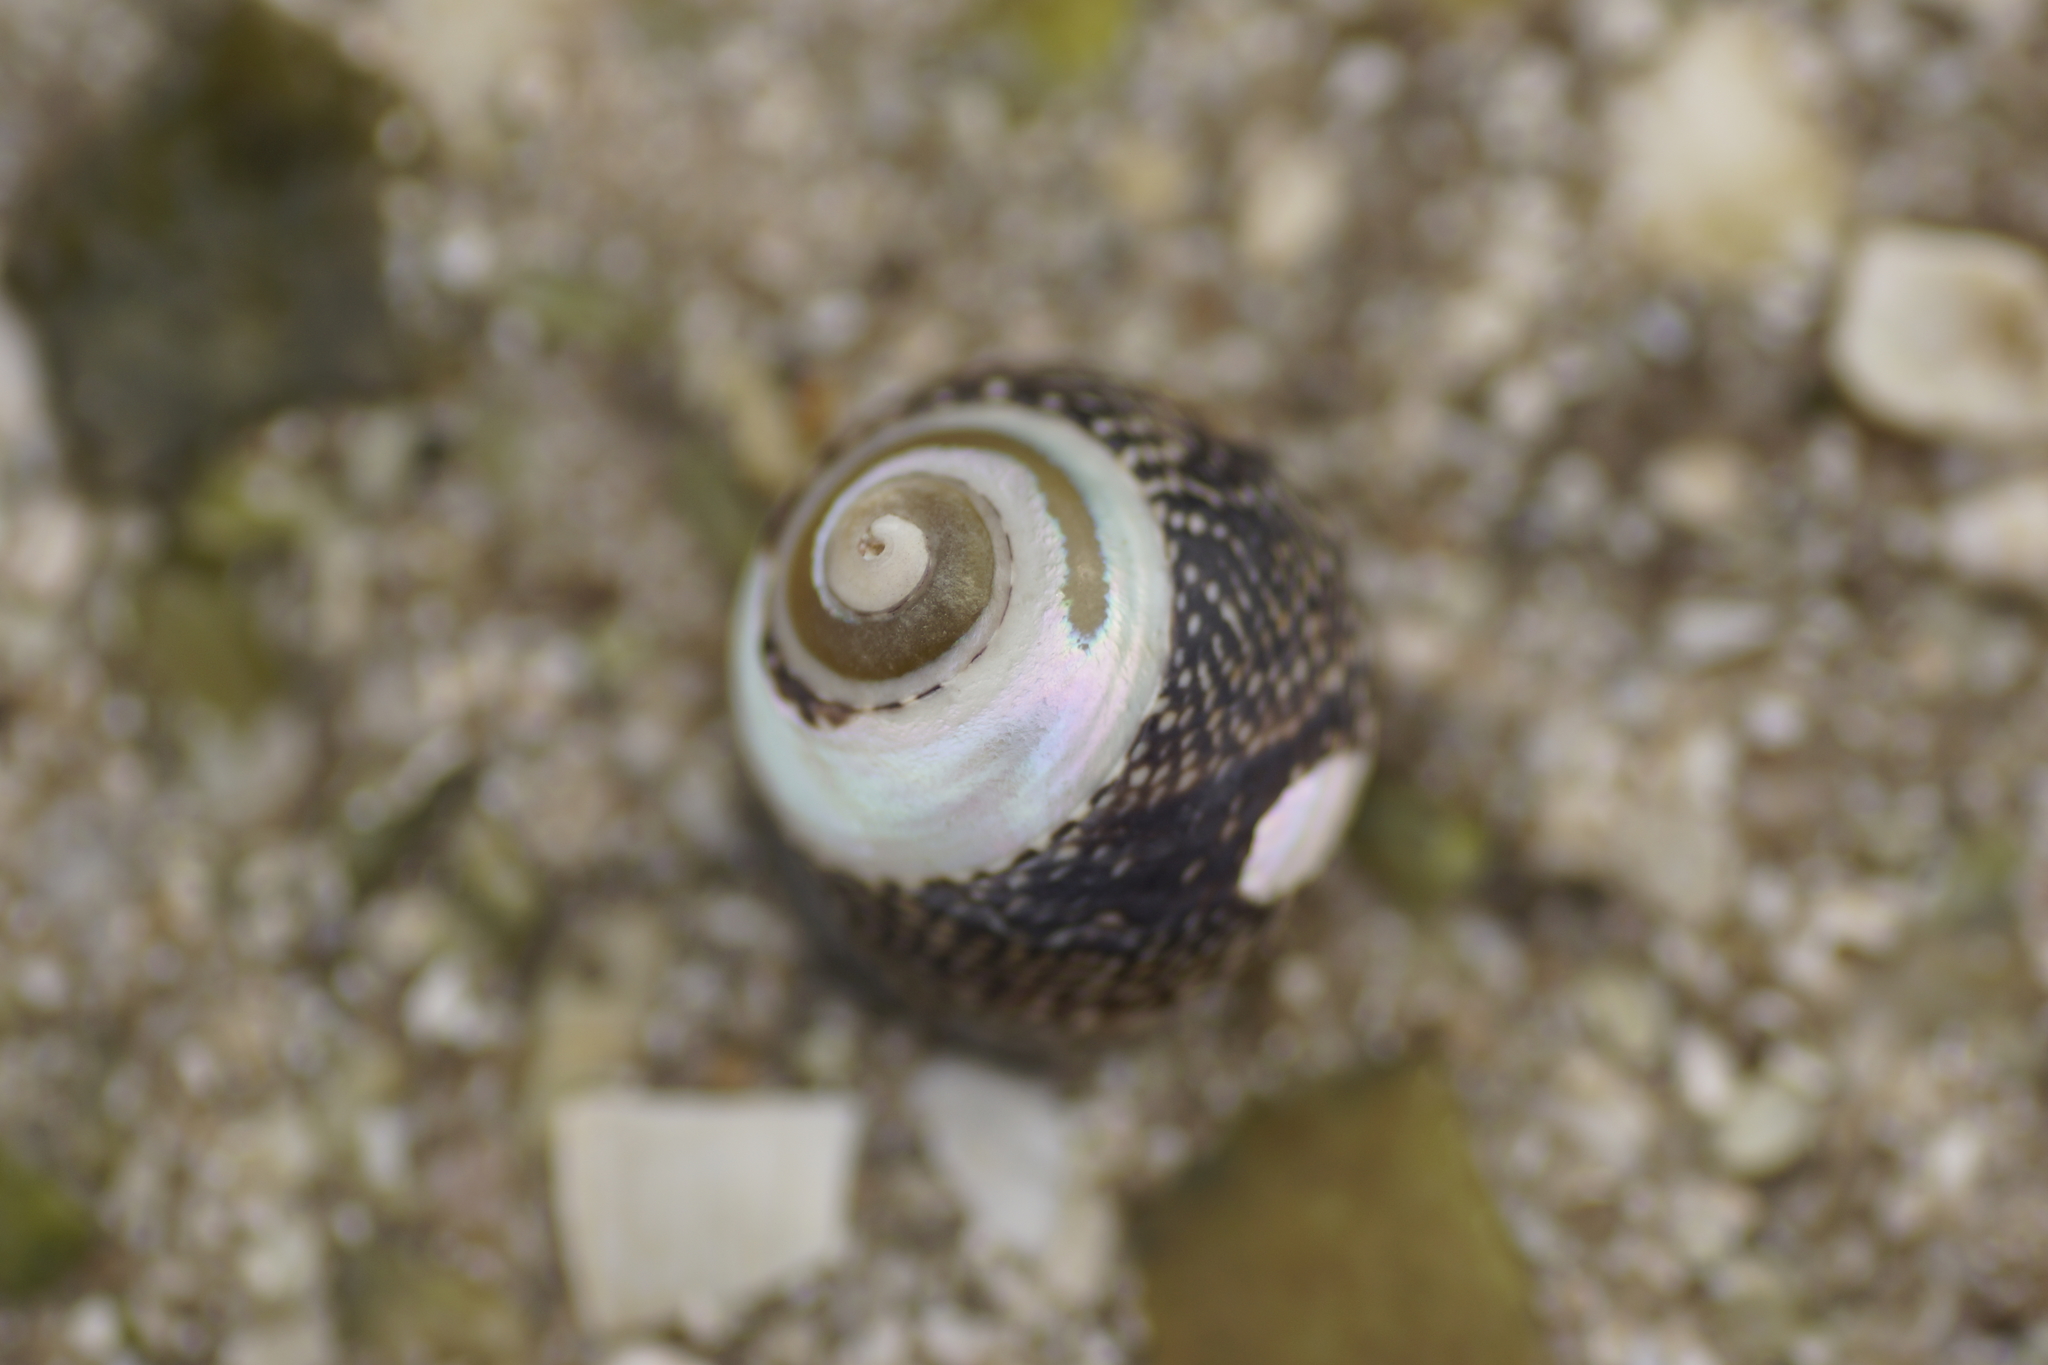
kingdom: Animalia
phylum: Mollusca
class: Gastropoda
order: Trochida
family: Trochidae
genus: Chlorodiloma
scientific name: Chlorodiloma odontis
